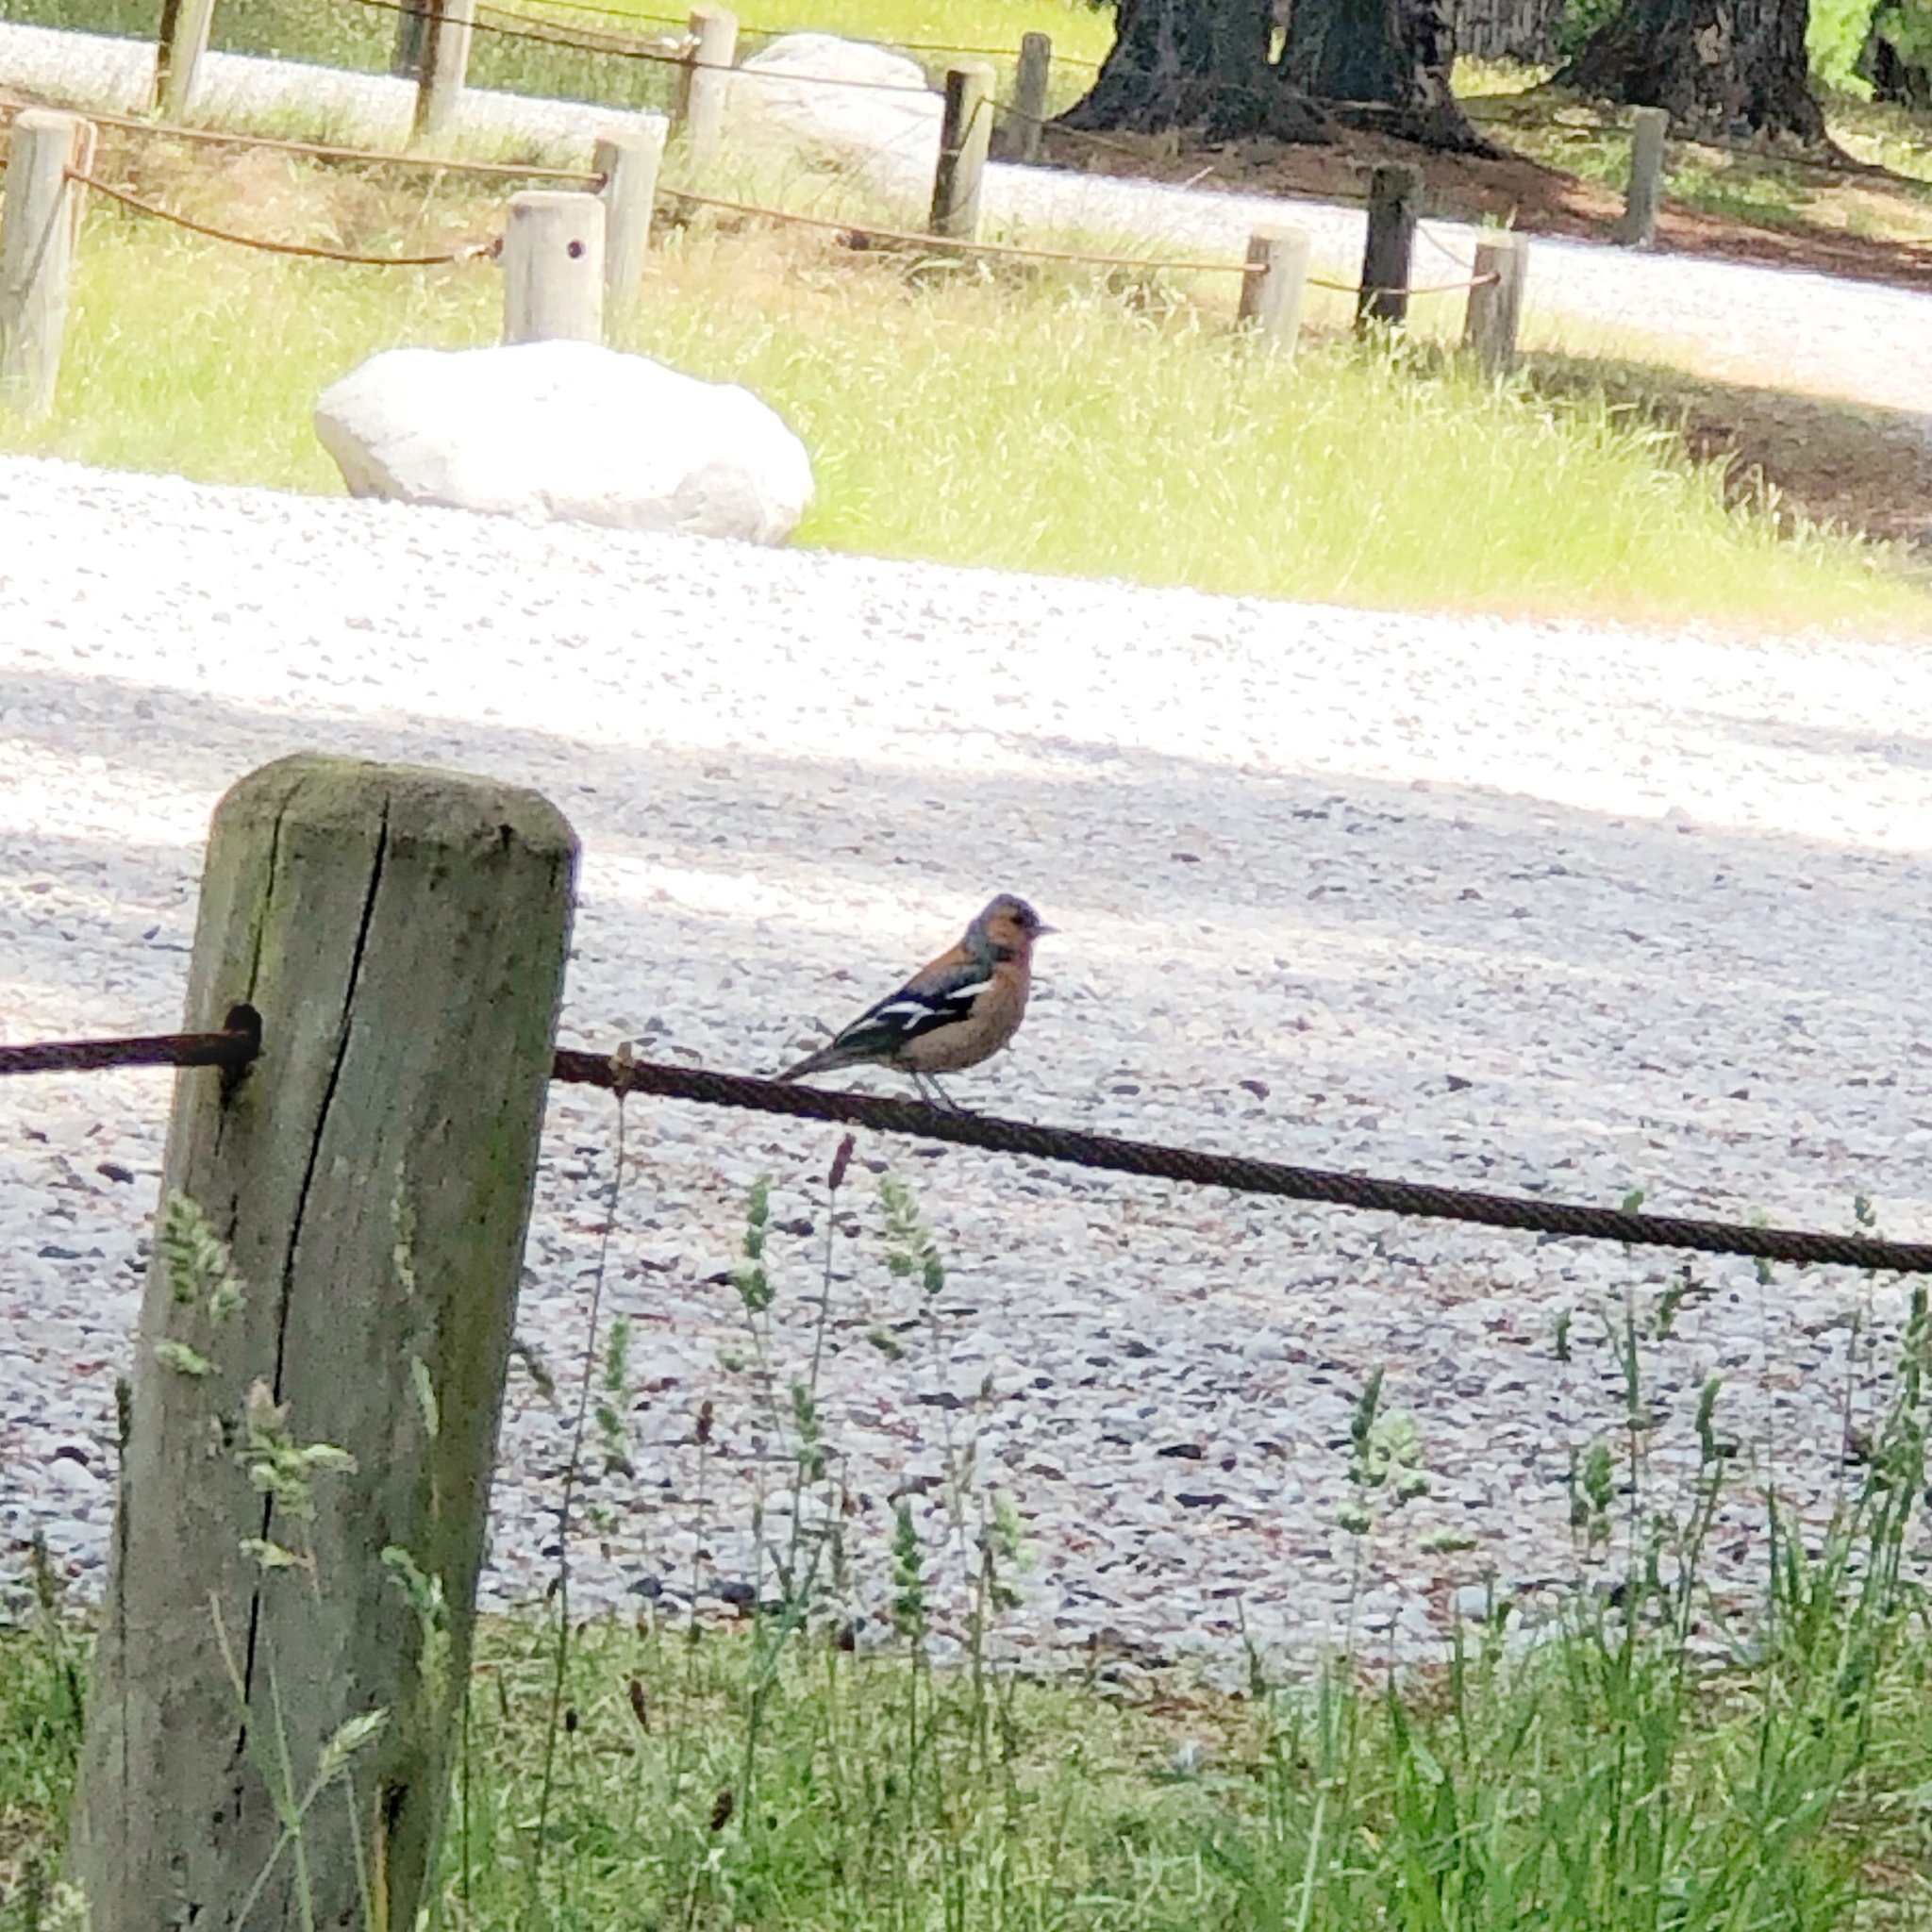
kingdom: Animalia
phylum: Chordata
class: Aves
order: Passeriformes
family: Fringillidae
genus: Fringilla
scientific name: Fringilla coelebs
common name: Common chaffinch
